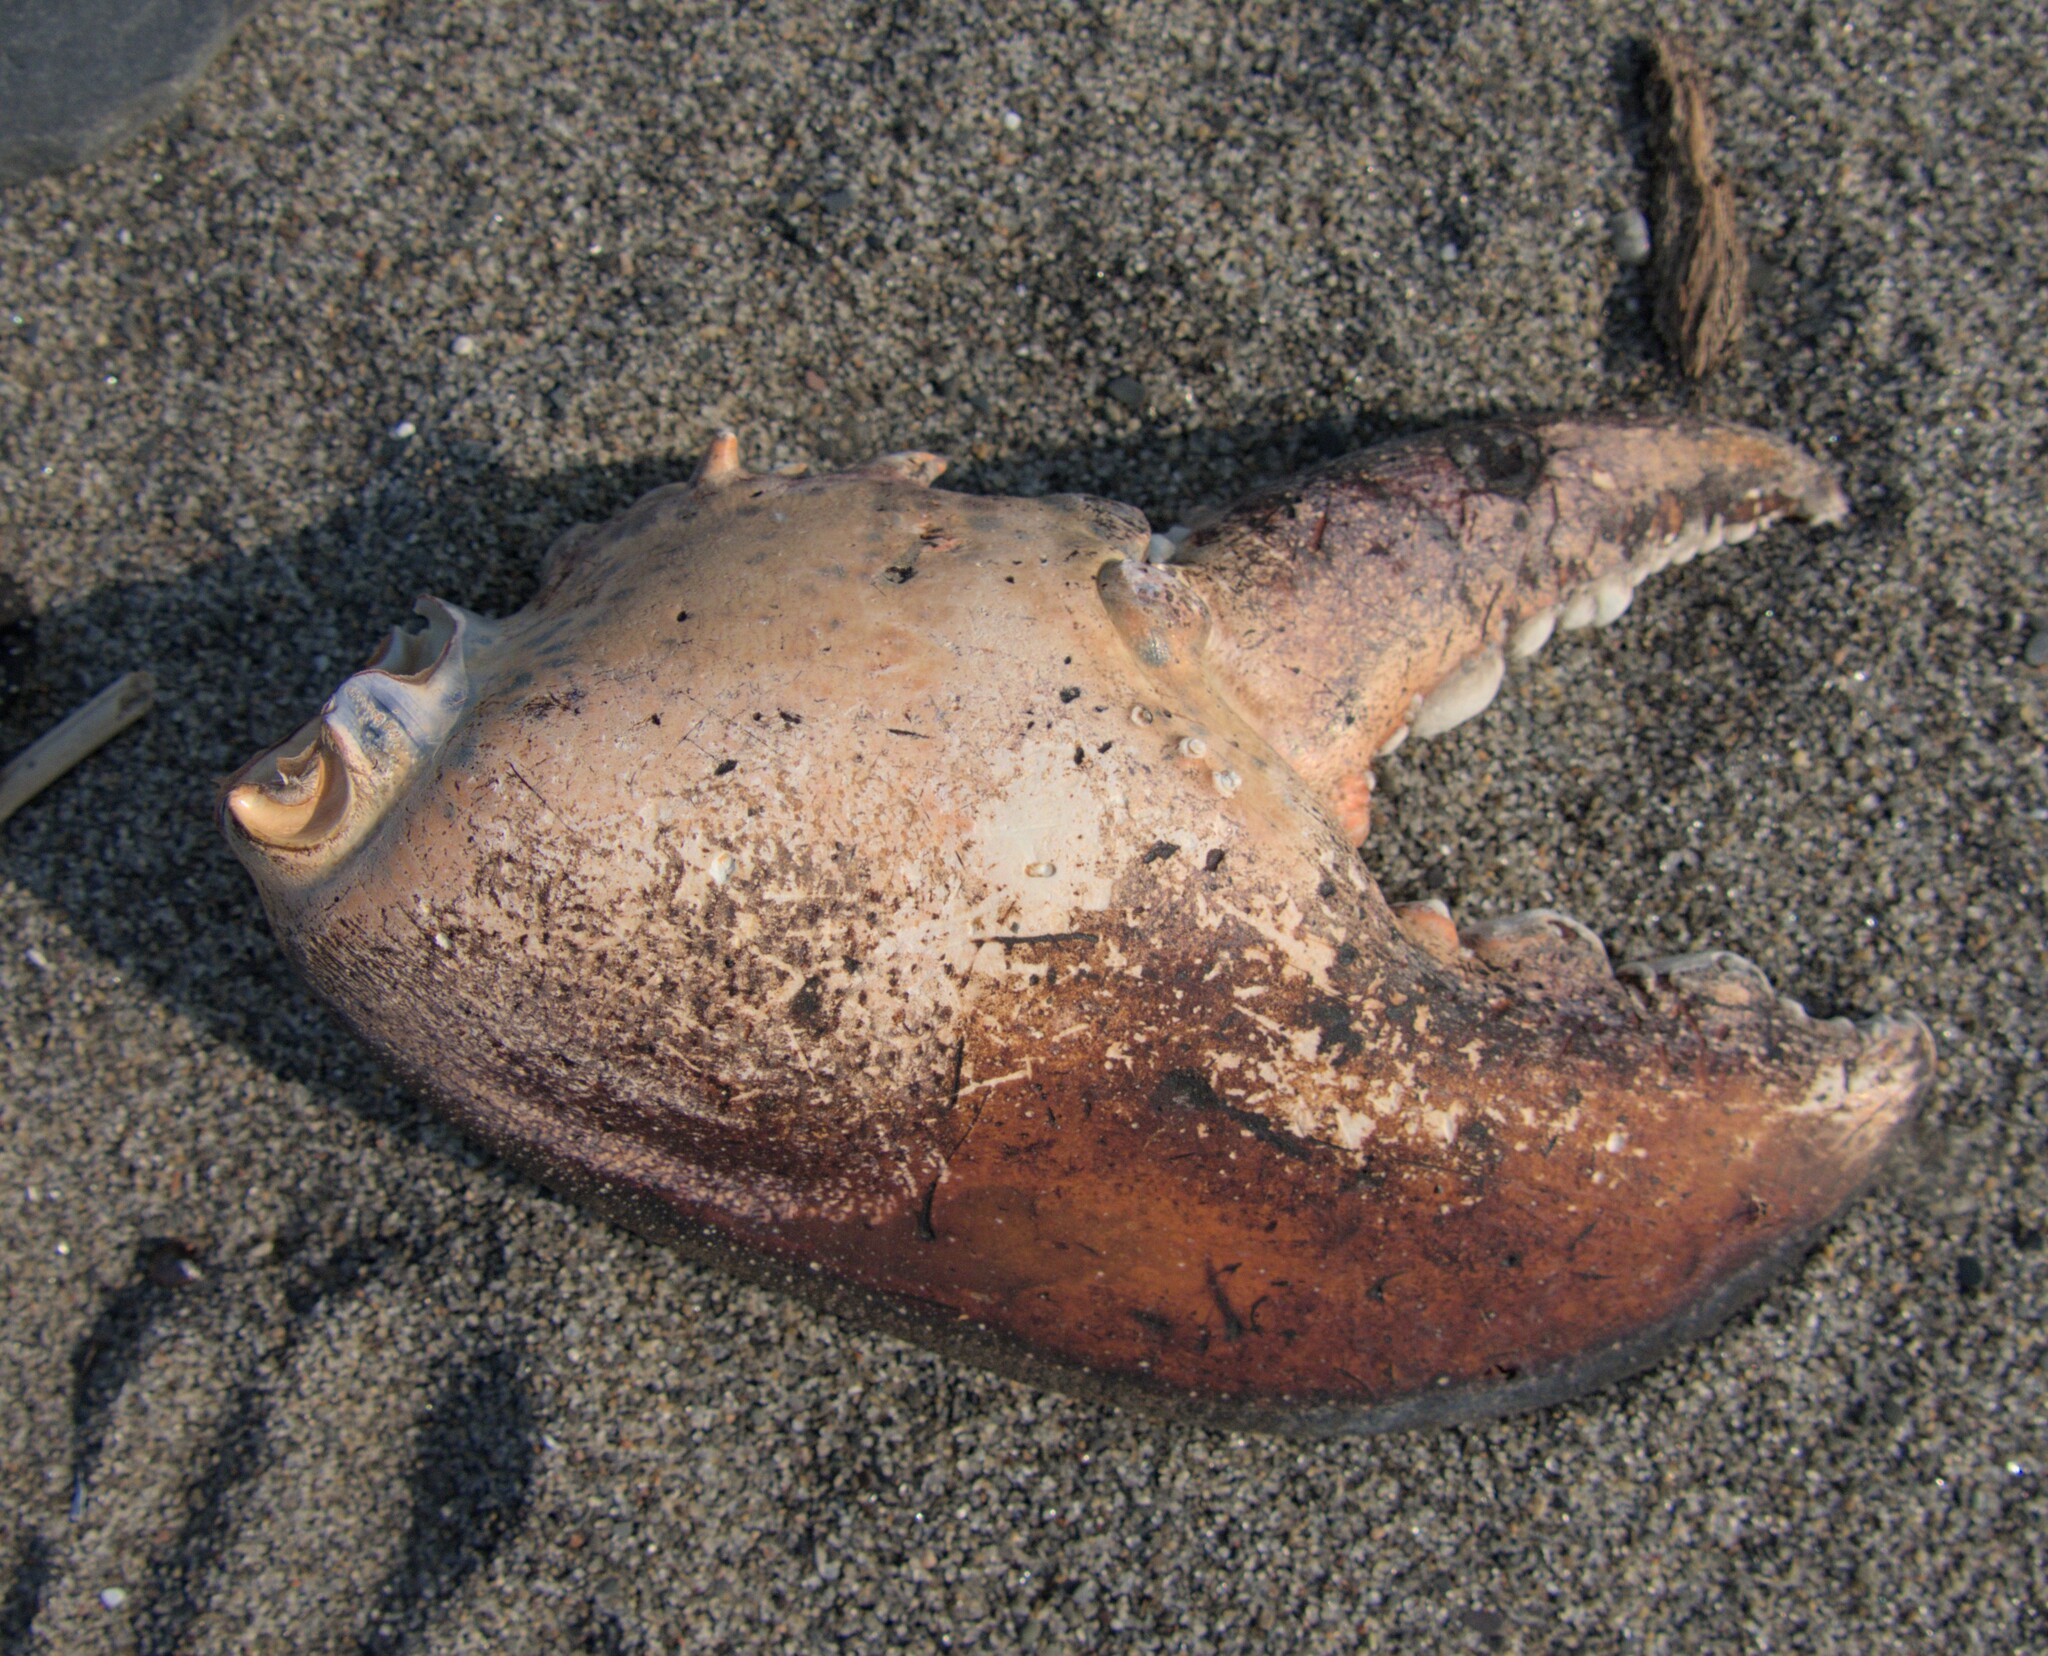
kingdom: Animalia
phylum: Arthropoda
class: Malacostraca
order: Decapoda
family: Nephropidae
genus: Homarus
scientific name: Homarus americanus
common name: American lobster
